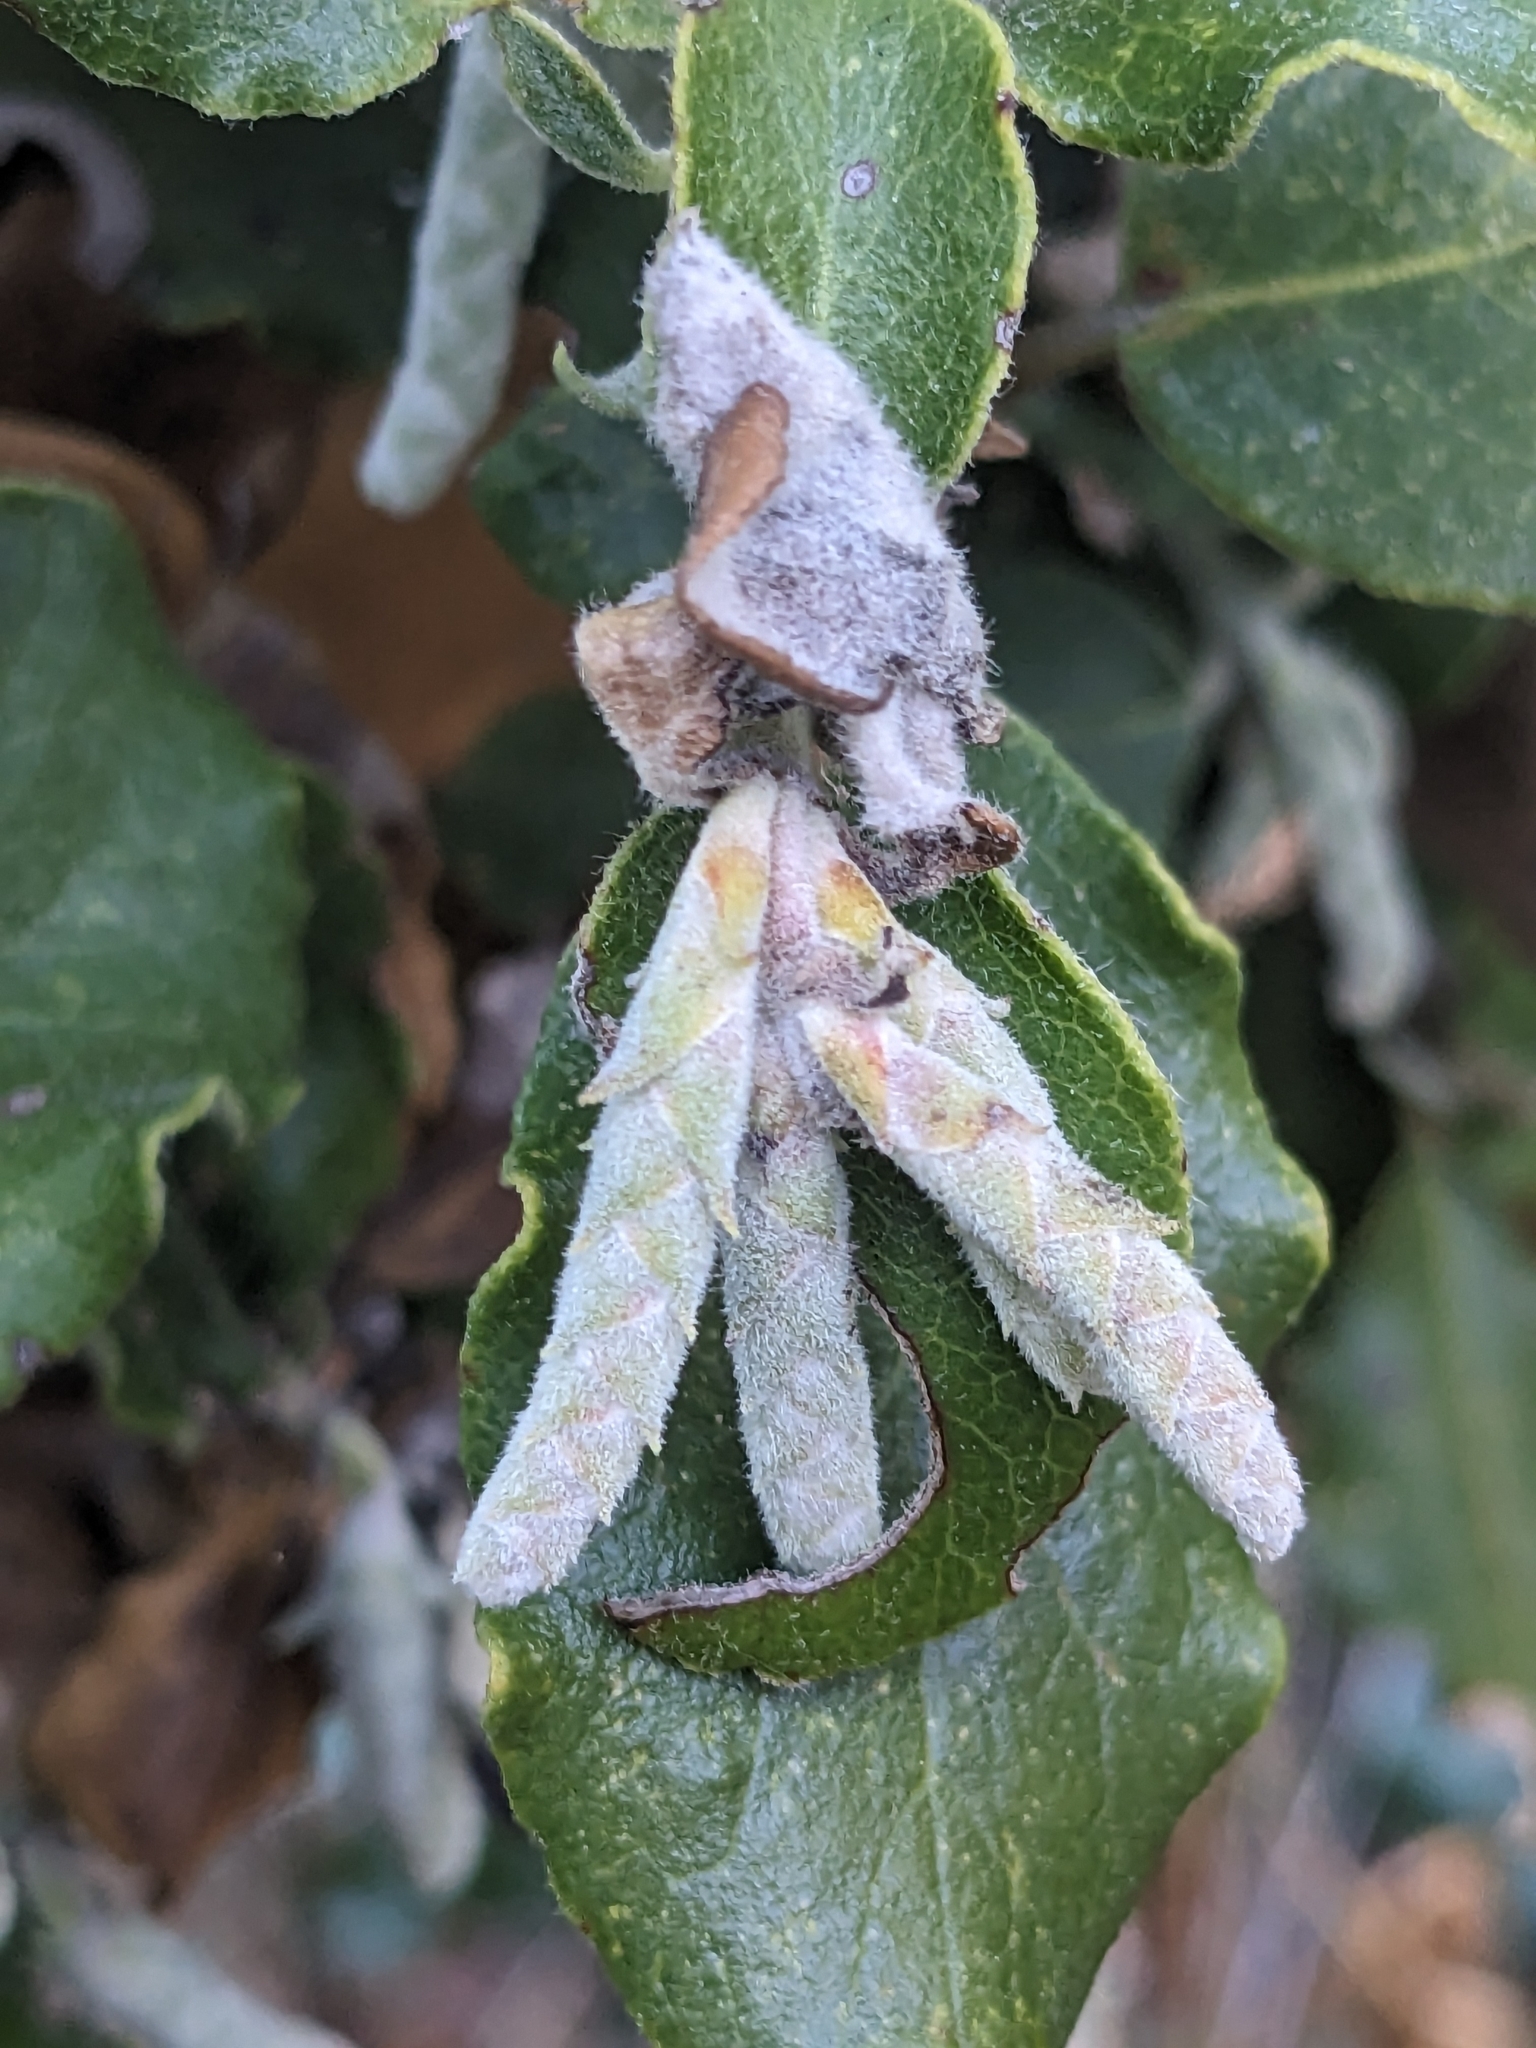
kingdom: Plantae
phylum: Tracheophyta
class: Magnoliopsida
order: Garryales
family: Garryaceae
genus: Garrya
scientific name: Garrya elliptica
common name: Silk-tassel
